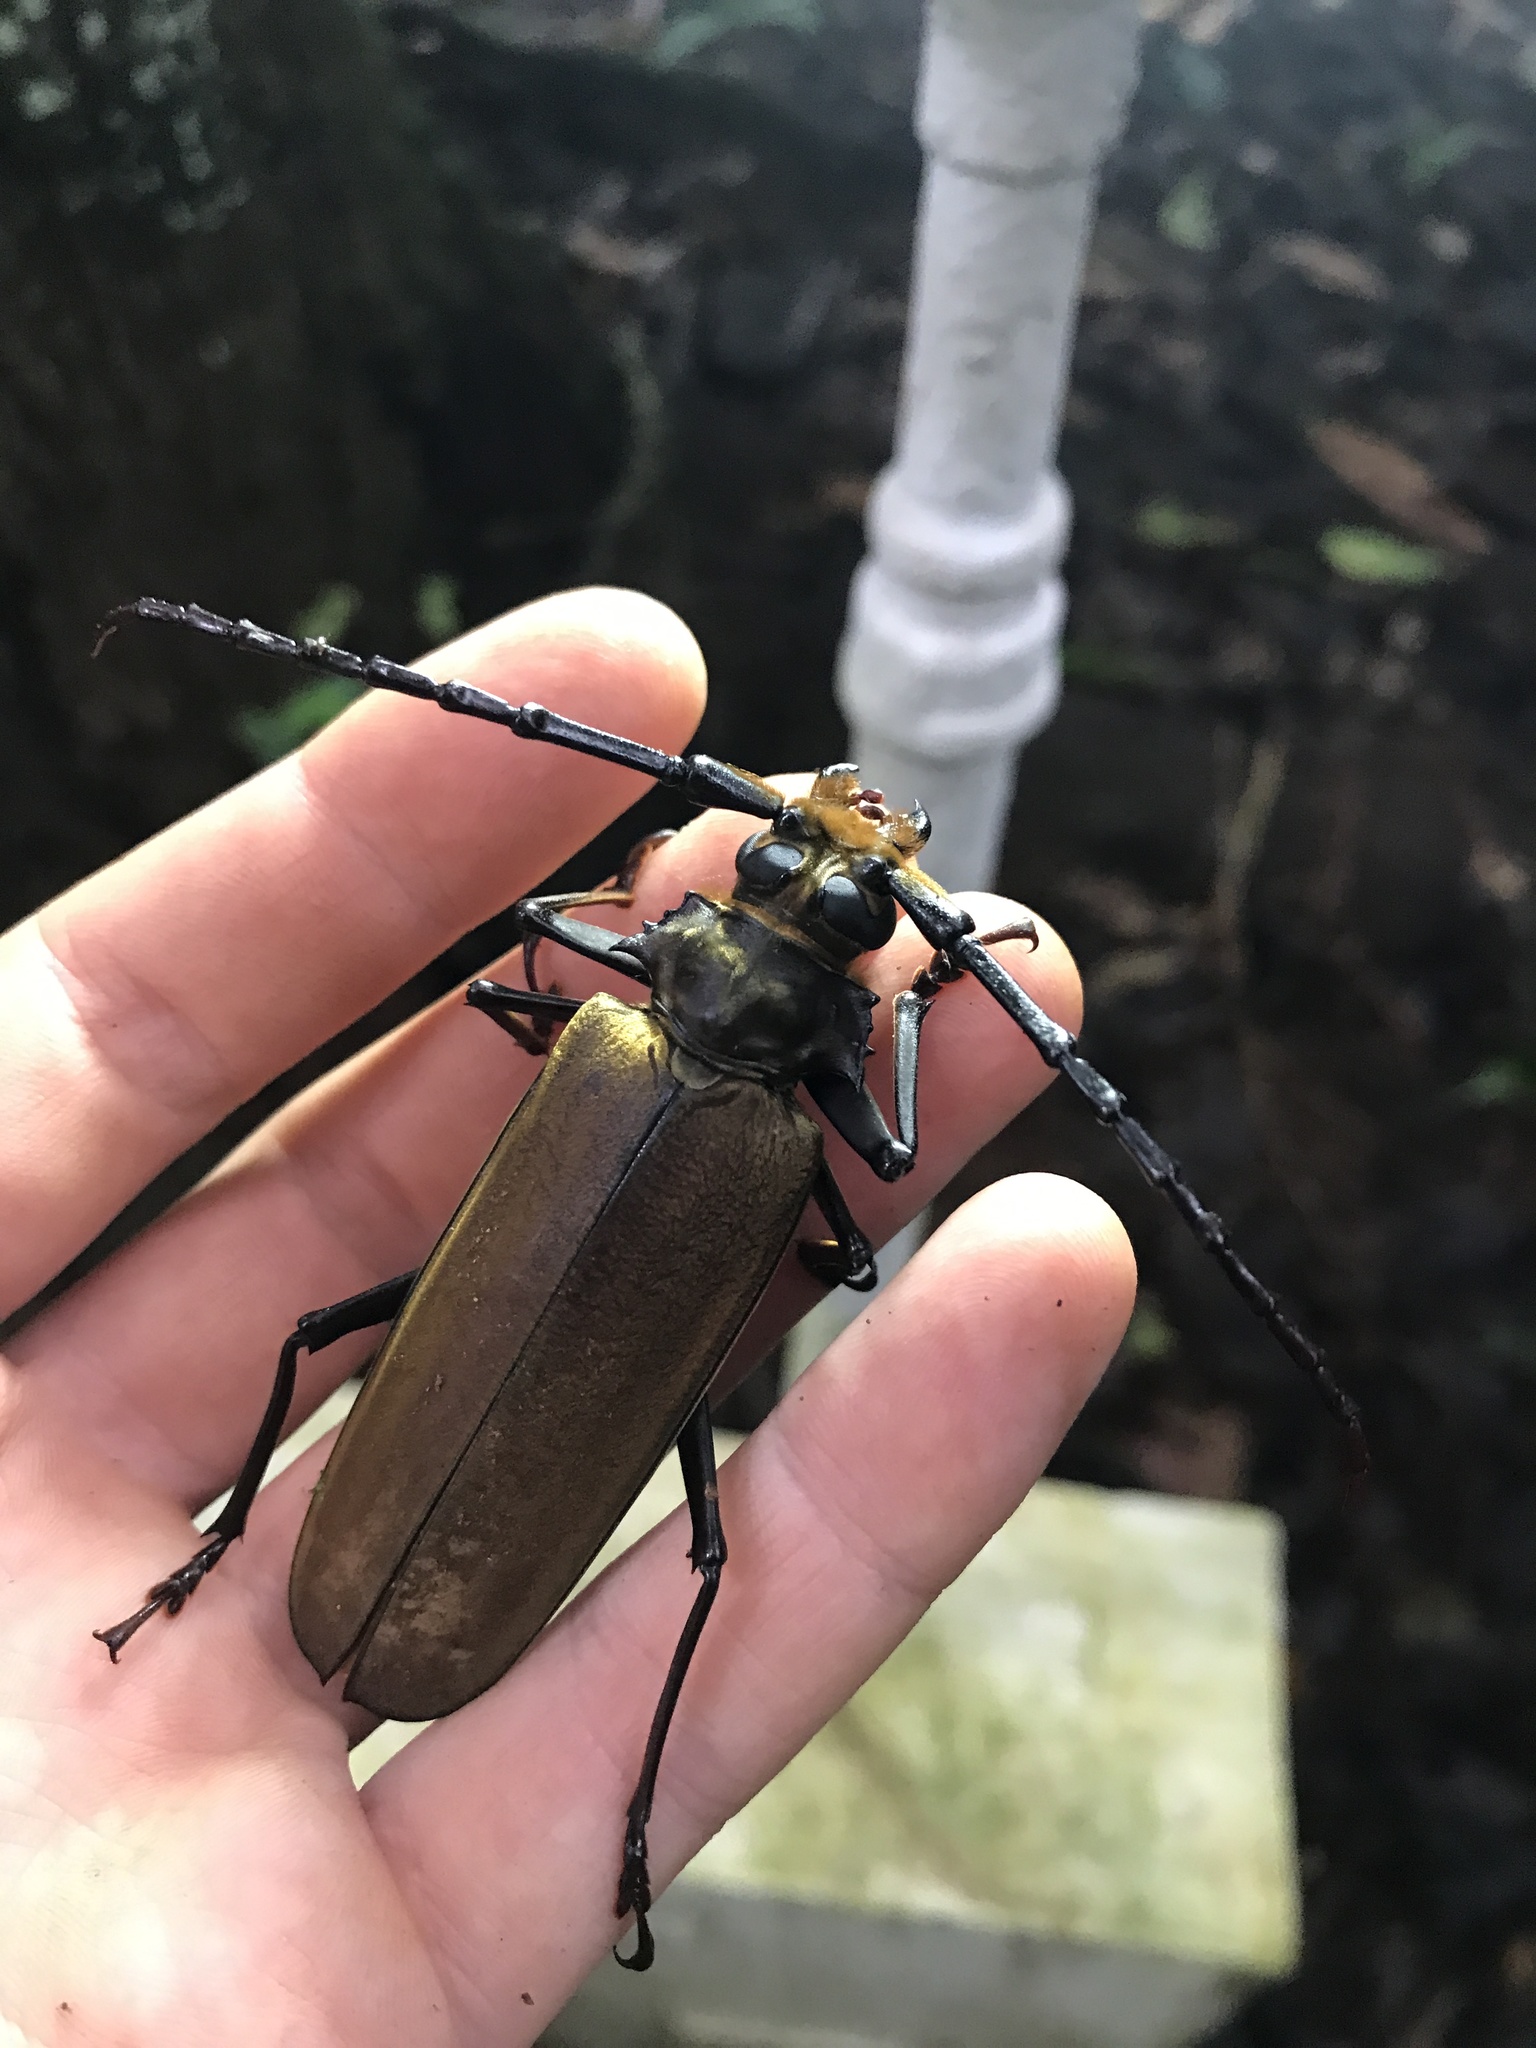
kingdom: Animalia
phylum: Arthropoda
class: Insecta
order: Coleoptera
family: Cerambycidae
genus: Orthomegas
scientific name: Orthomegas marechali
